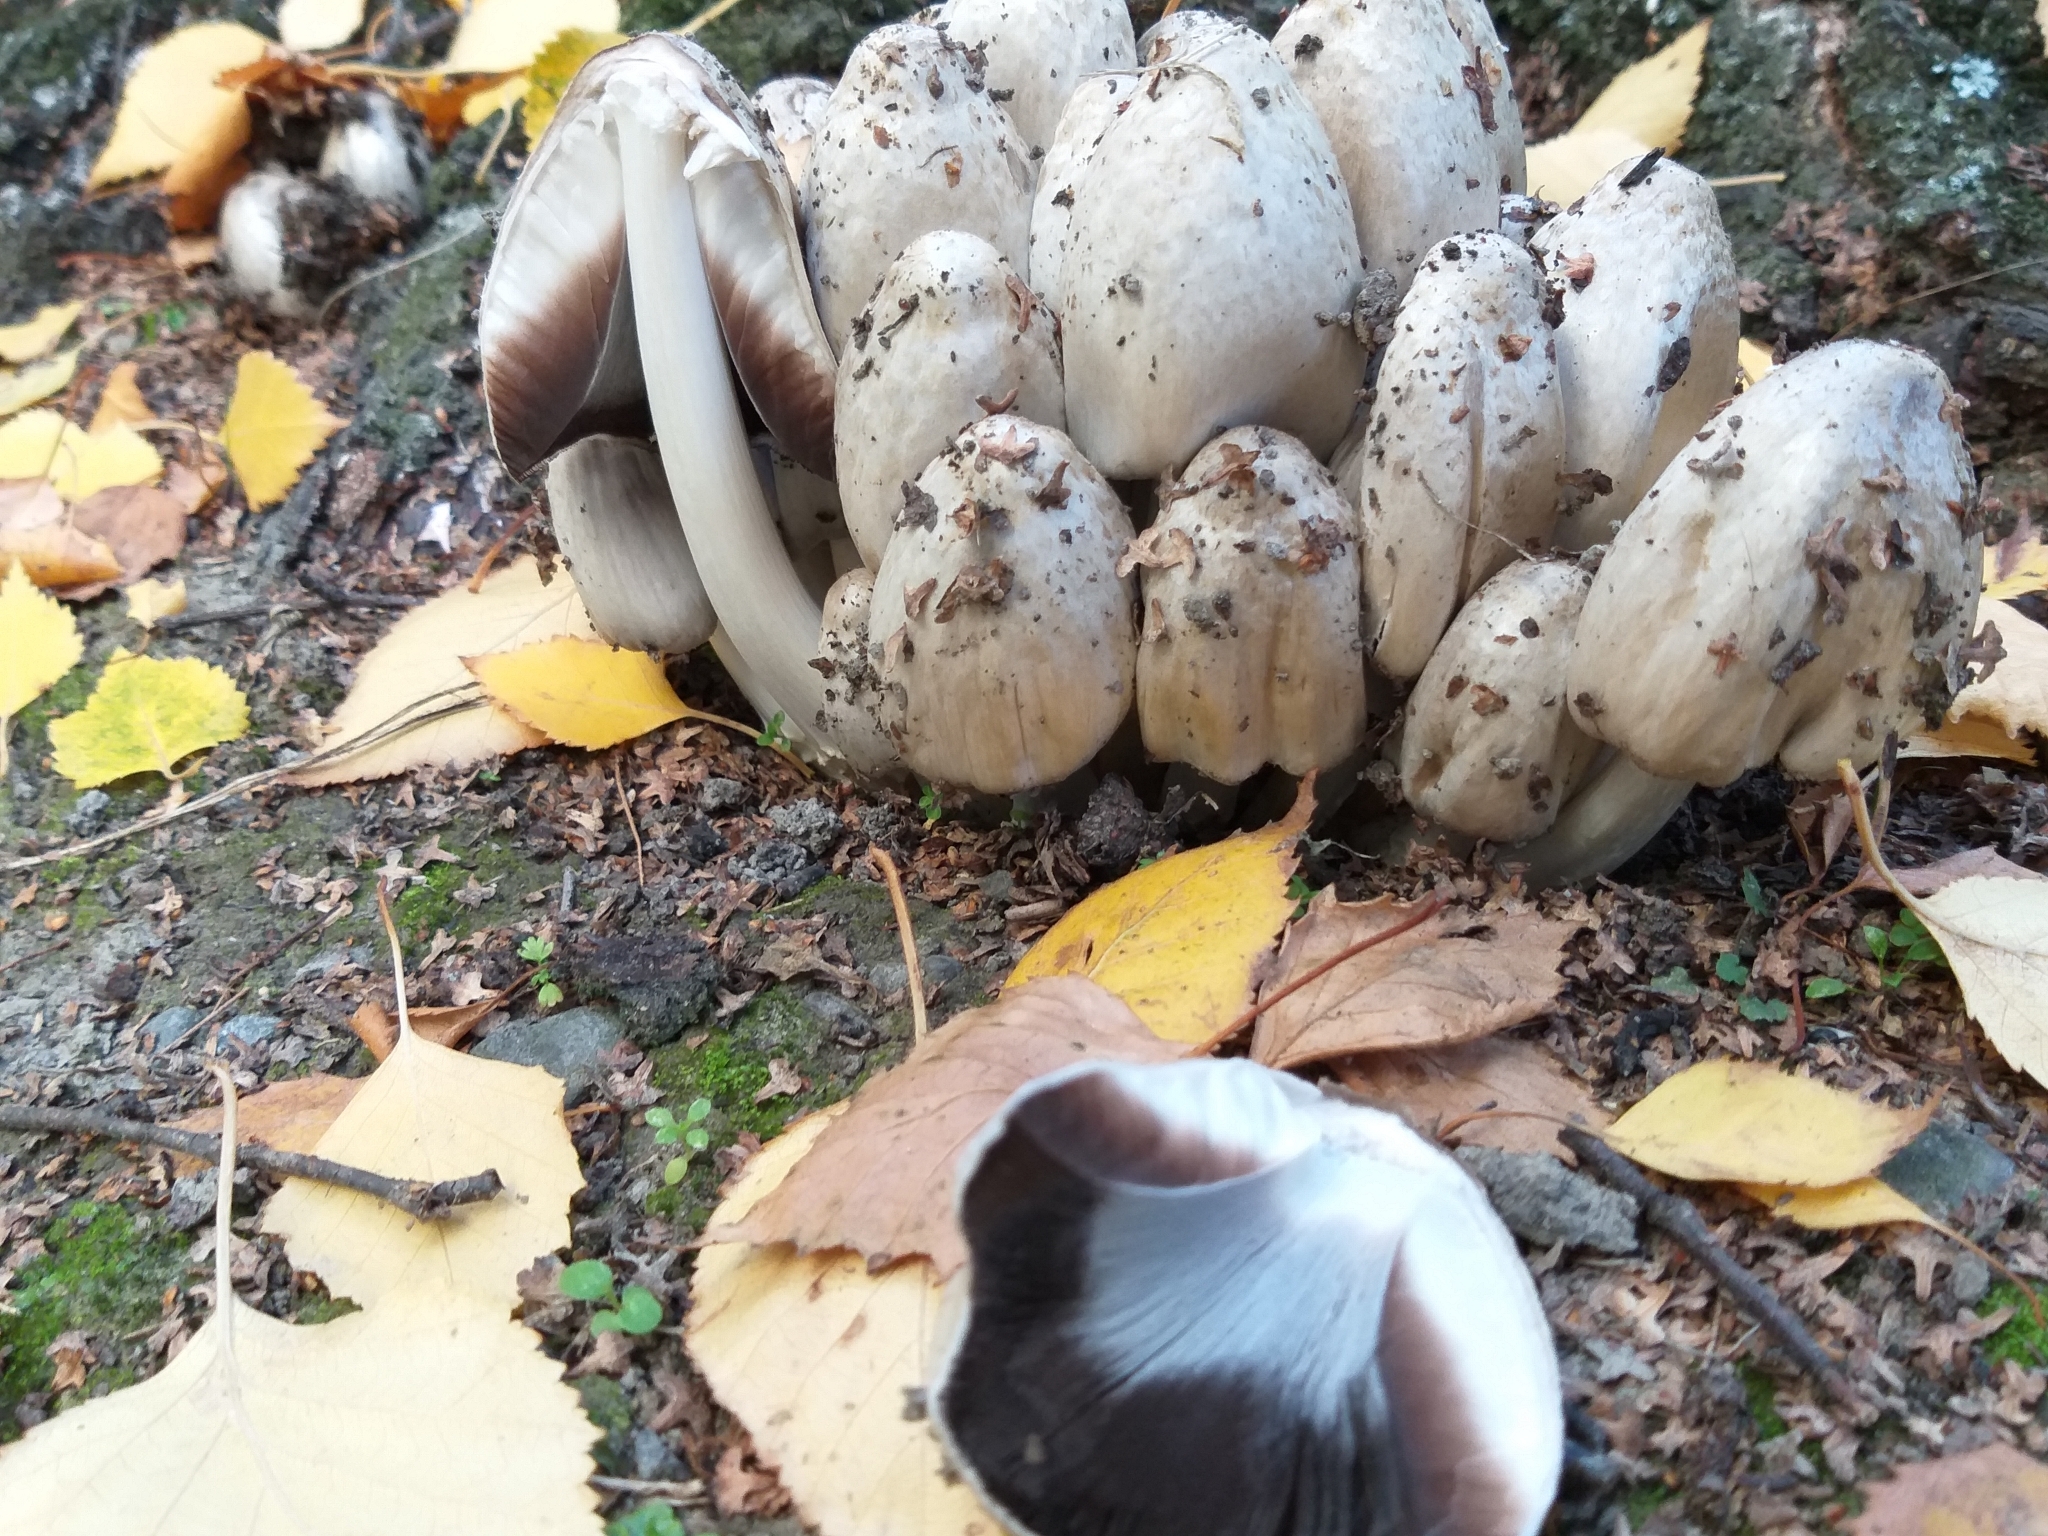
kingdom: Fungi
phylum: Basidiomycota
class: Agaricomycetes
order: Agaricales
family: Psathyrellaceae
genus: Coprinopsis
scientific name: Coprinopsis atramentaria
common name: Common ink-cap
